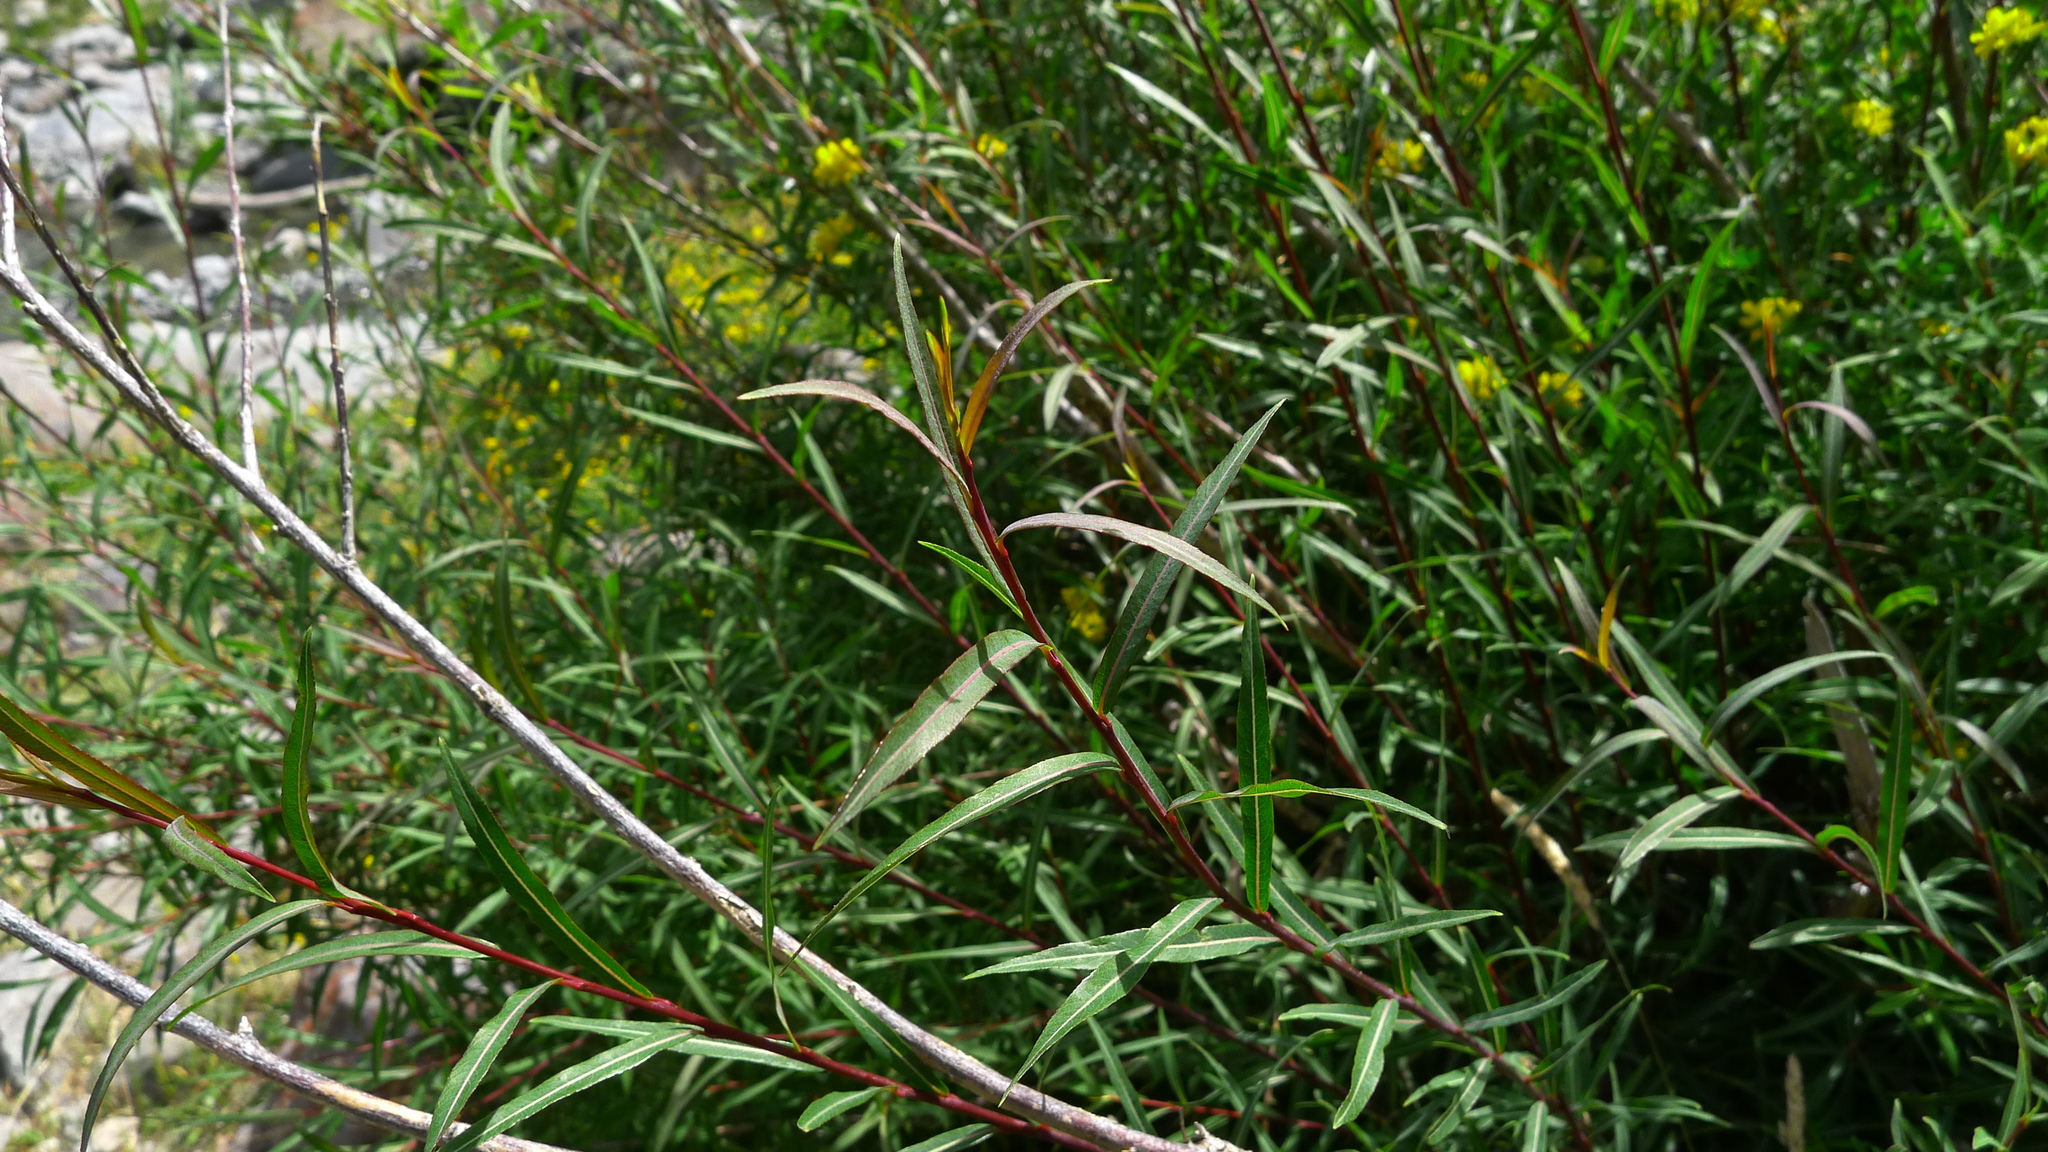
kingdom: Plantae
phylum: Tracheophyta
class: Magnoliopsida
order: Malpighiales
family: Salicaceae
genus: Salix
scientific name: Salix purpurea
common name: Purple willow
